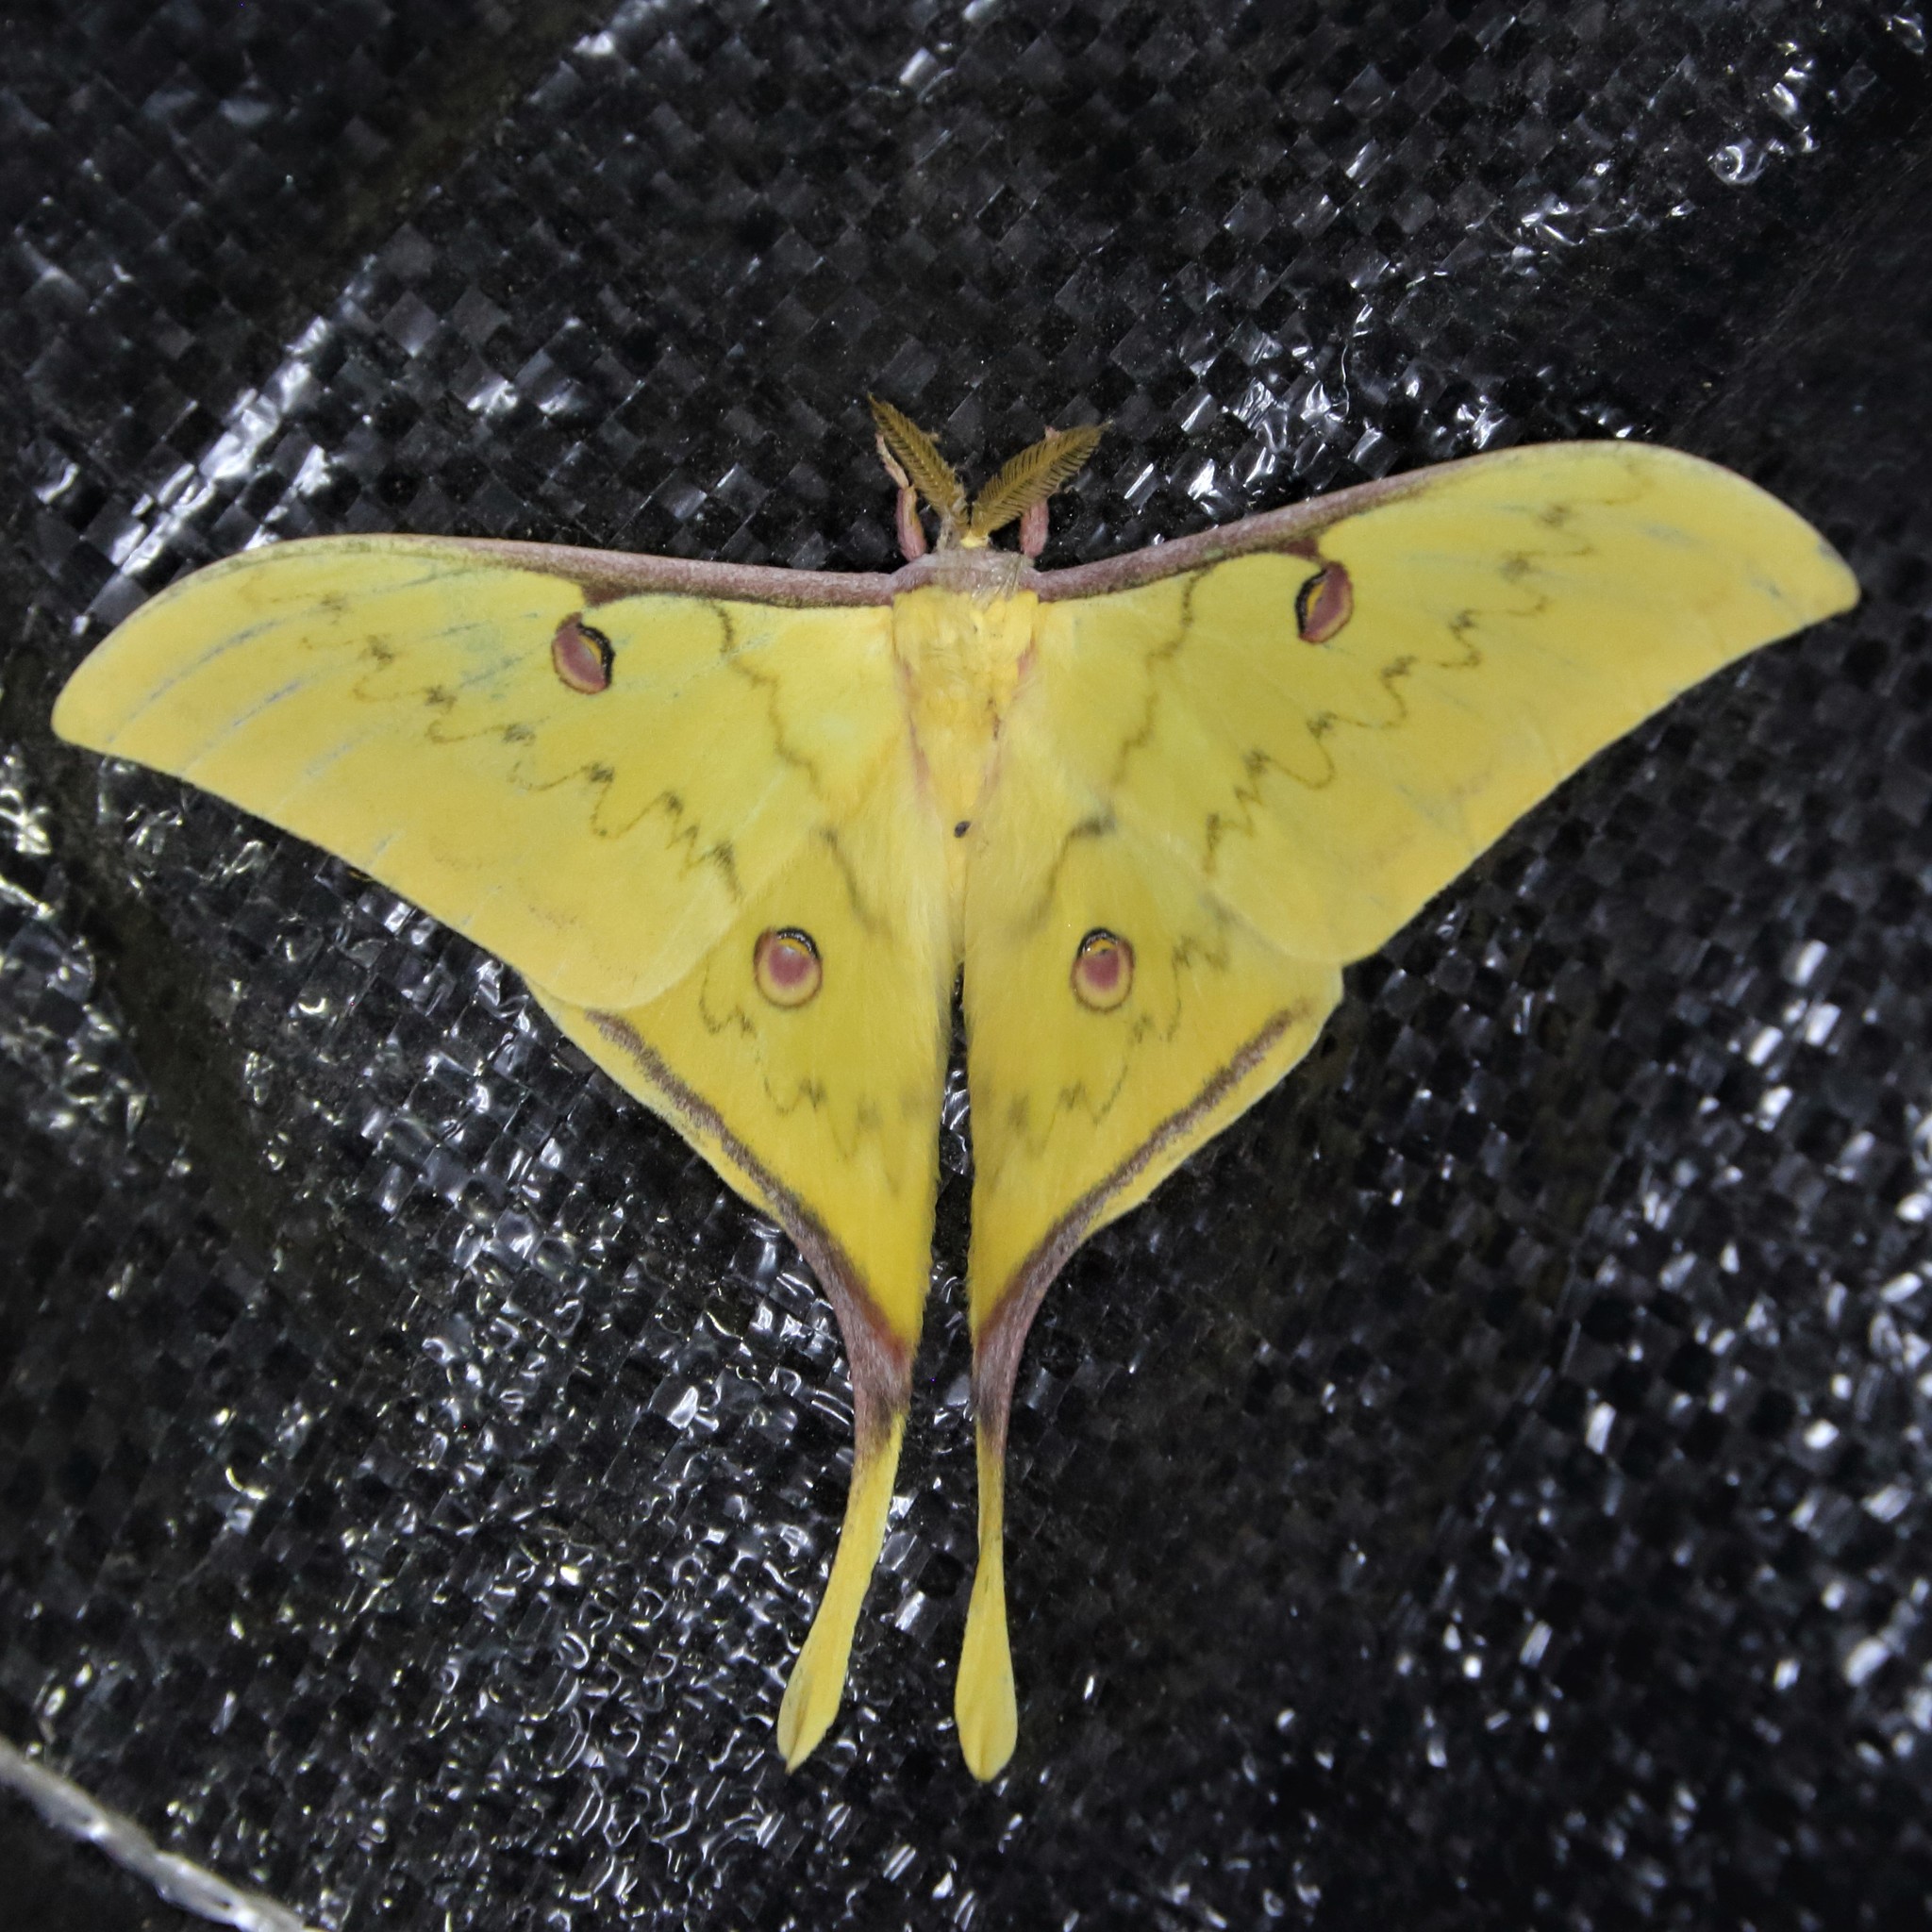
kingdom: Animalia
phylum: Arthropoda
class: Insecta
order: Lepidoptera
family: Saturniidae
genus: Actias
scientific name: Actias parasinensis
